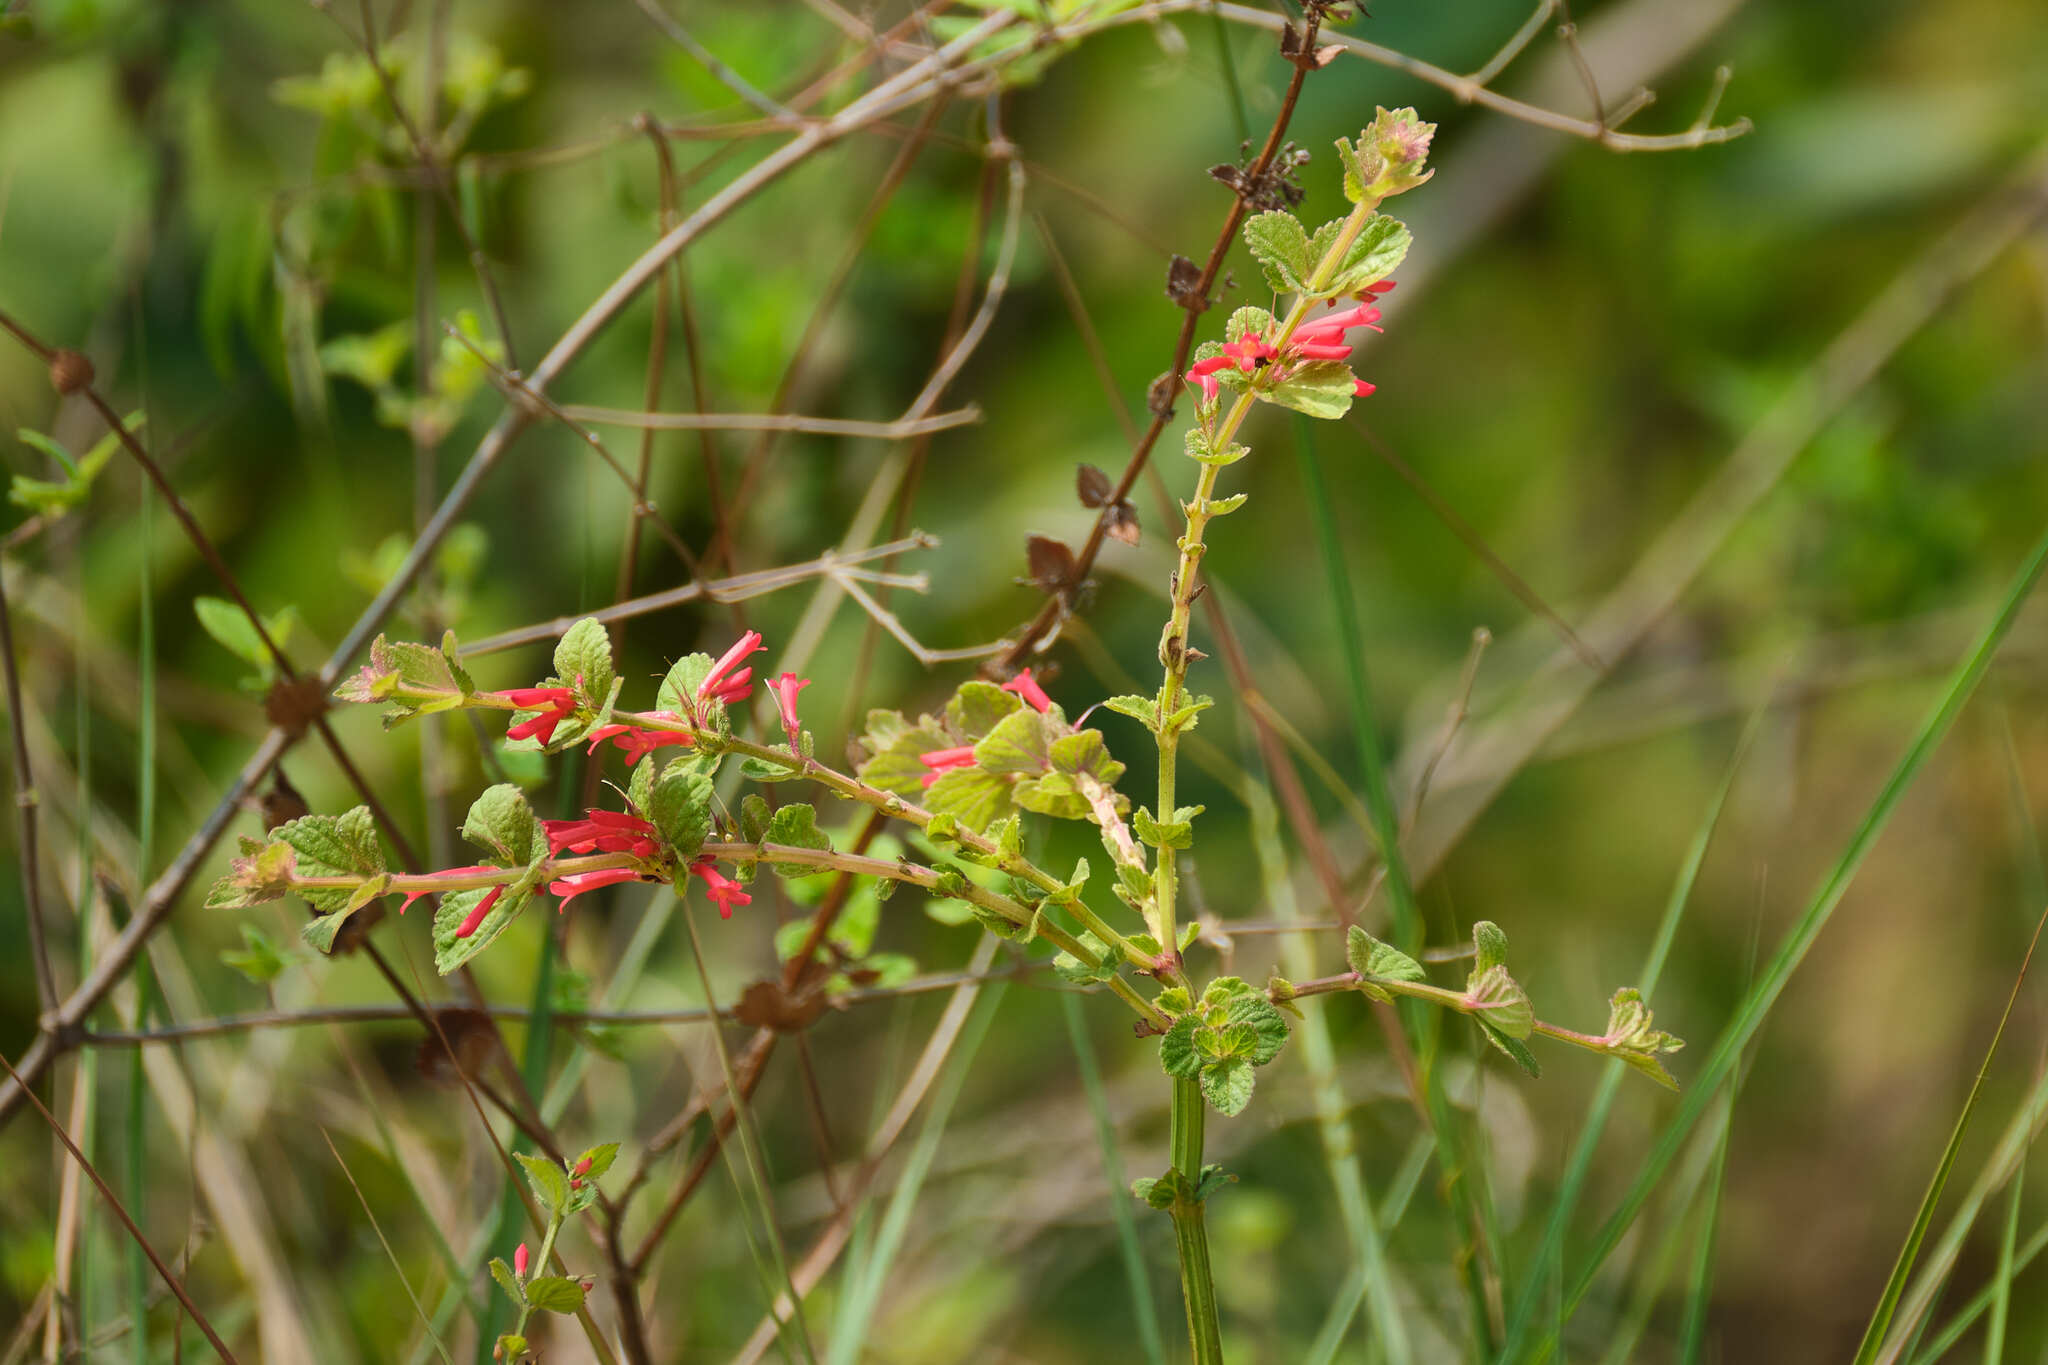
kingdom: Plantae
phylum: Tracheophyta
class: Magnoliopsida
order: Lamiales
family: Plantaginaceae
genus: Russelia
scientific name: Russelia sarmentosa
